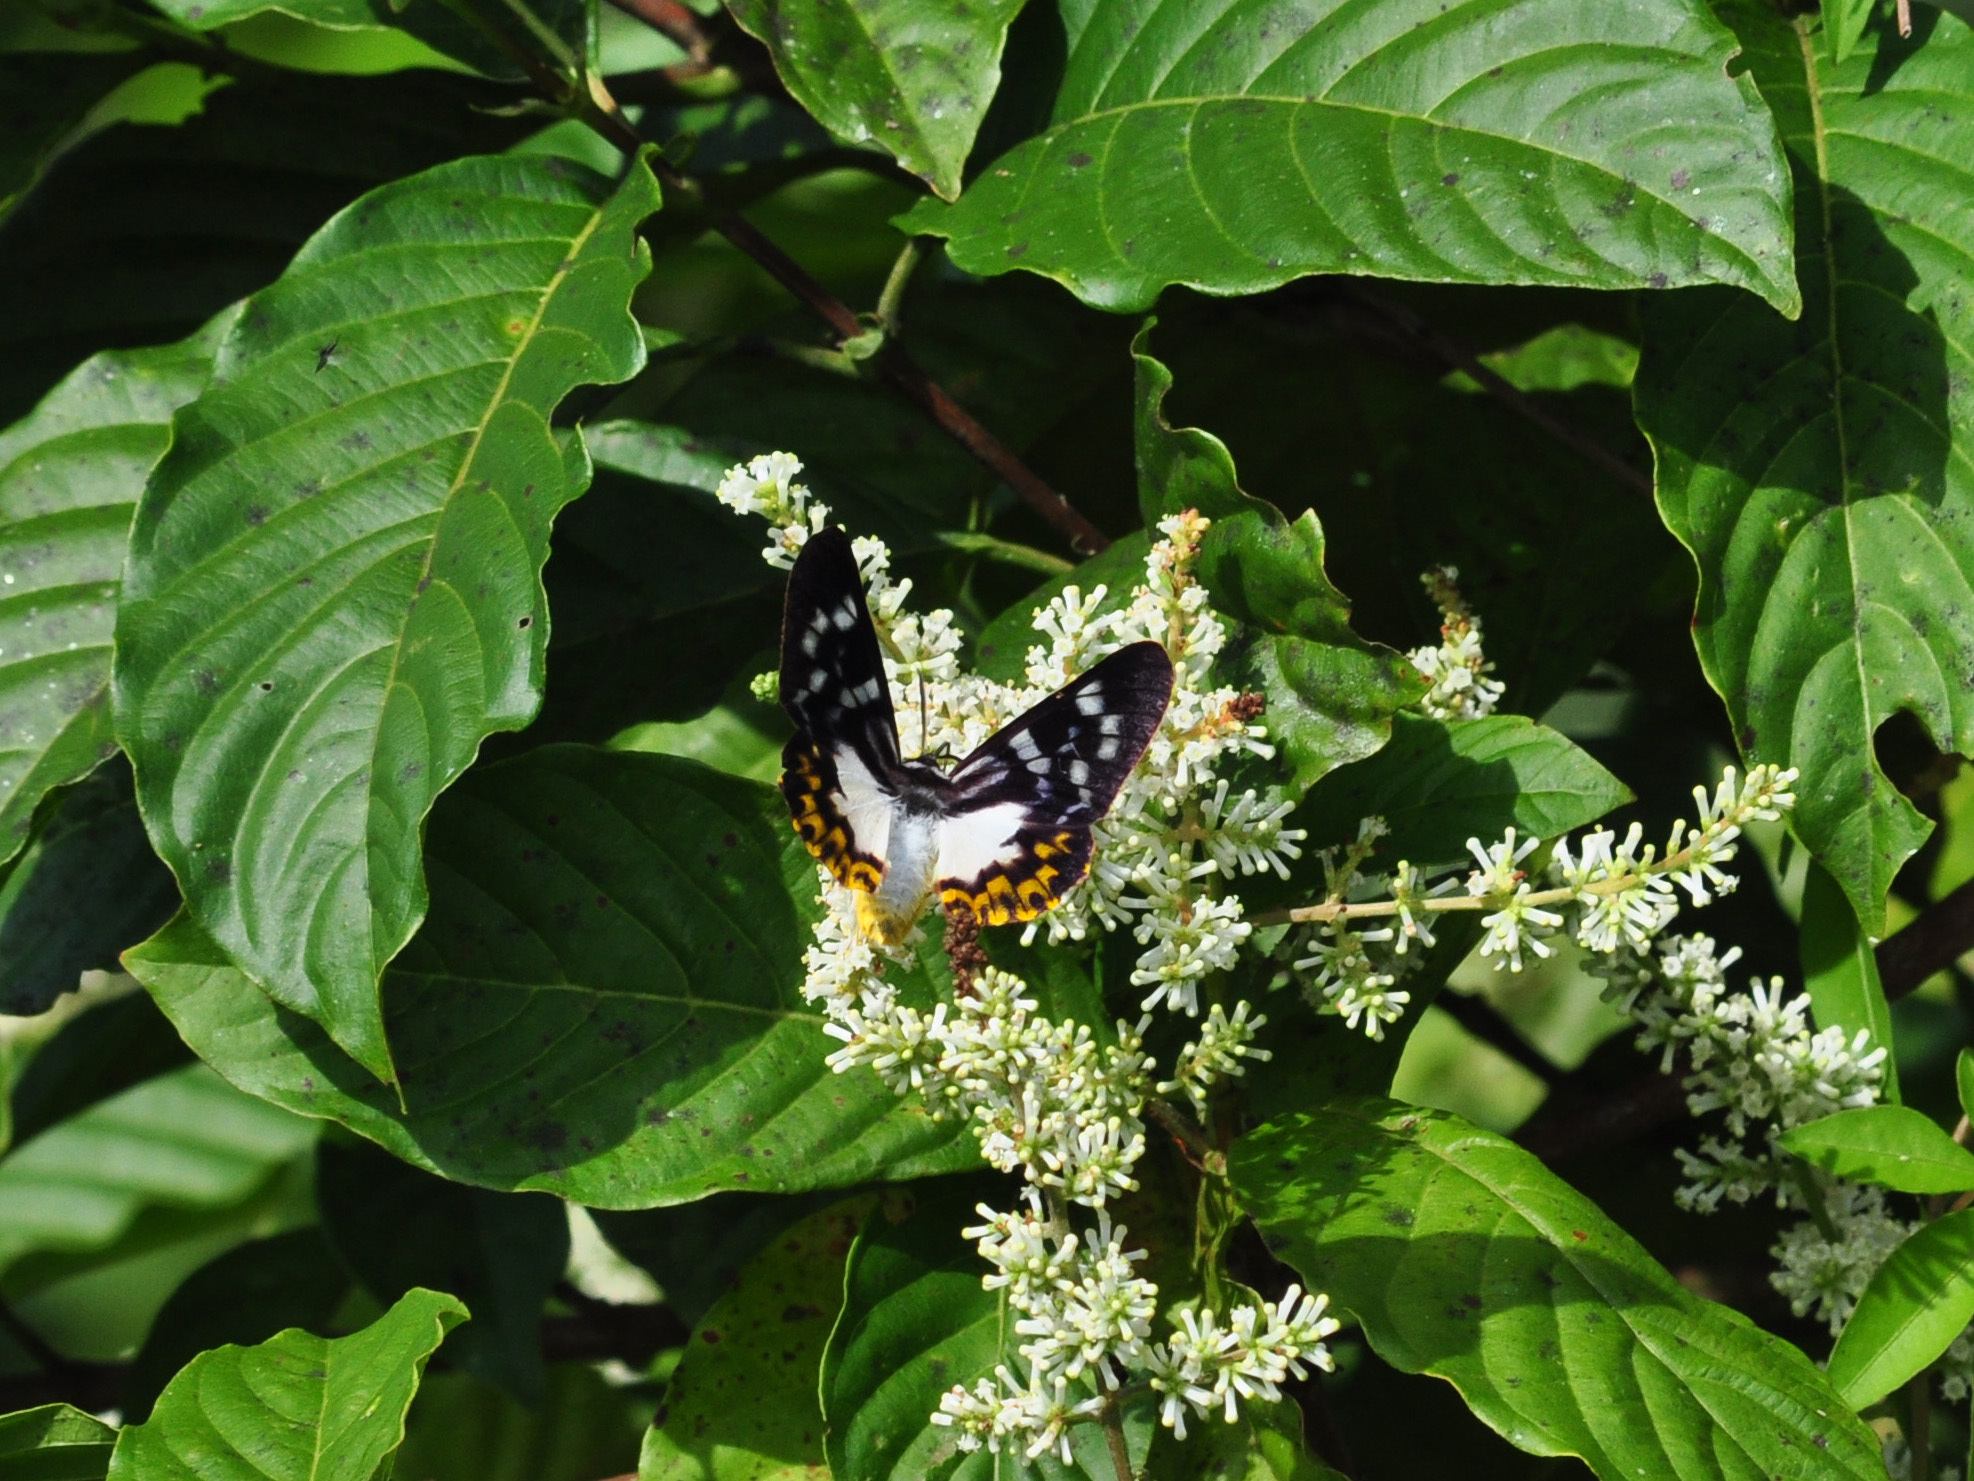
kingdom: Animalia
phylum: Arthropoda
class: Insecta
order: Lepidoptera
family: Geometridae
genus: Dysphania
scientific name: Dysphania discalis
